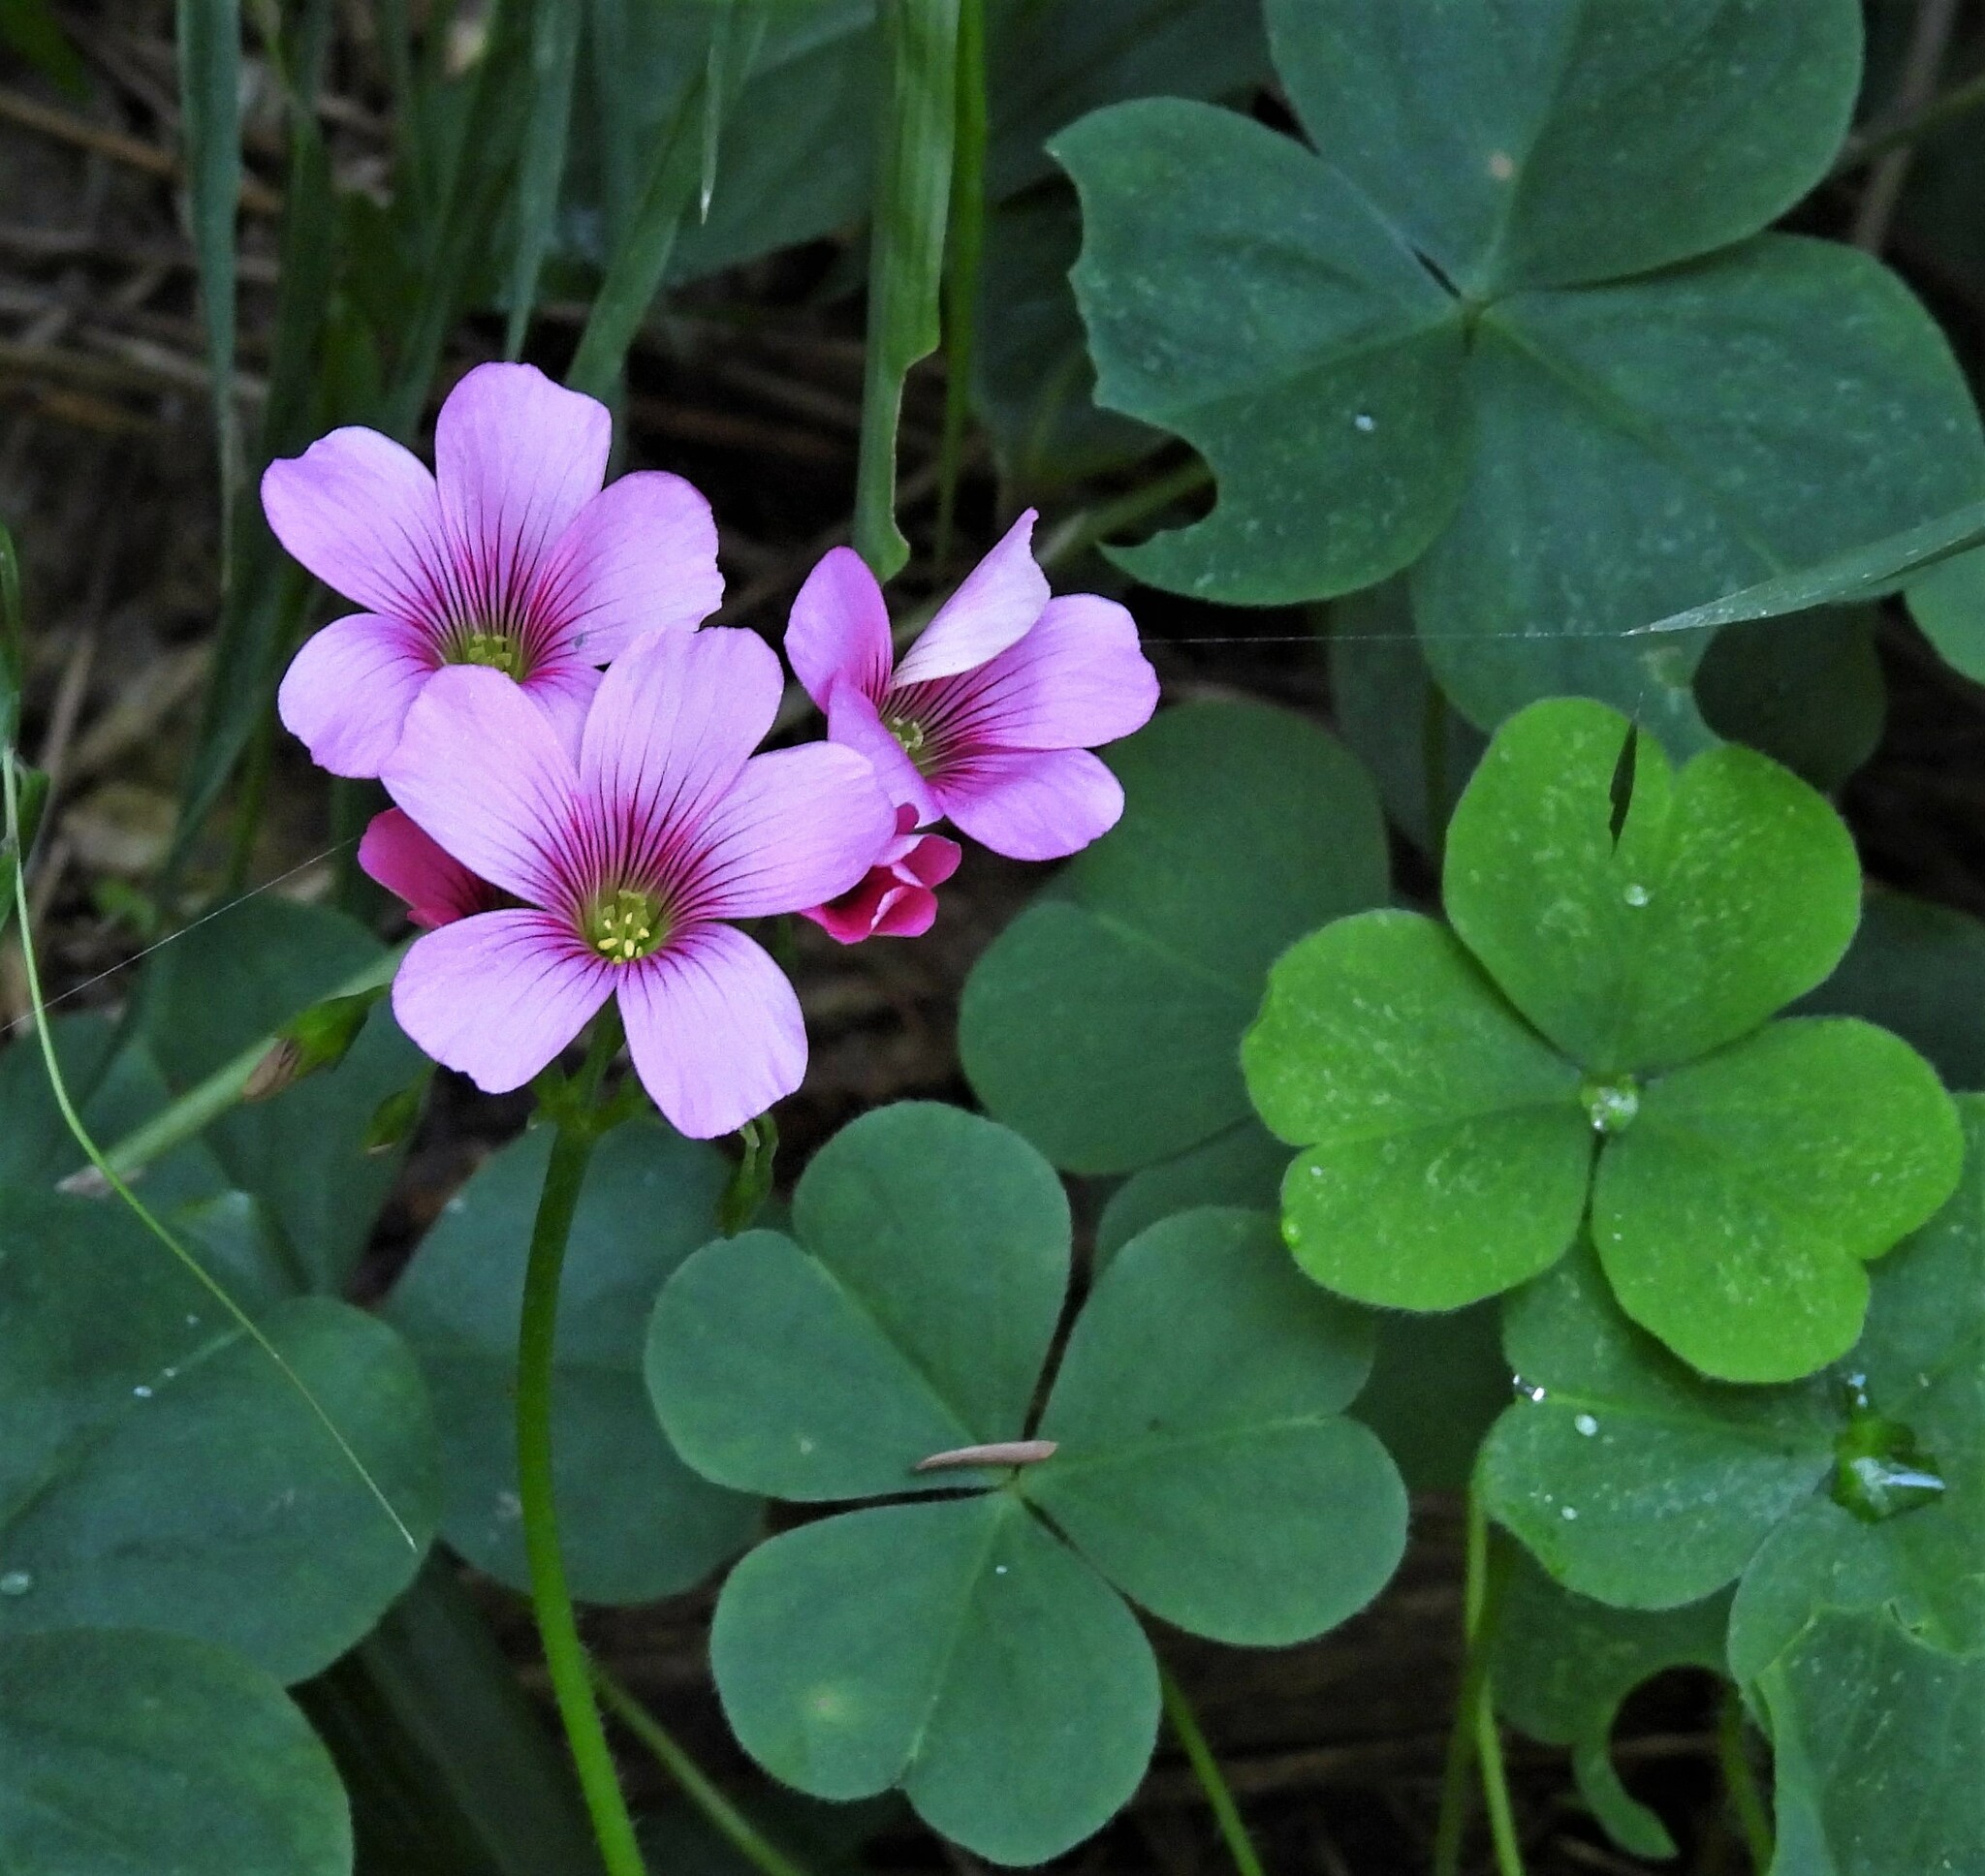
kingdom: Plantae
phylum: Tracheophyta
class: Magnoliopsida
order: Oxalidales
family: Oxalidaceae
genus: Oxalis
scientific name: Oxalis debilis
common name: Large-flowered pink-sorrel
